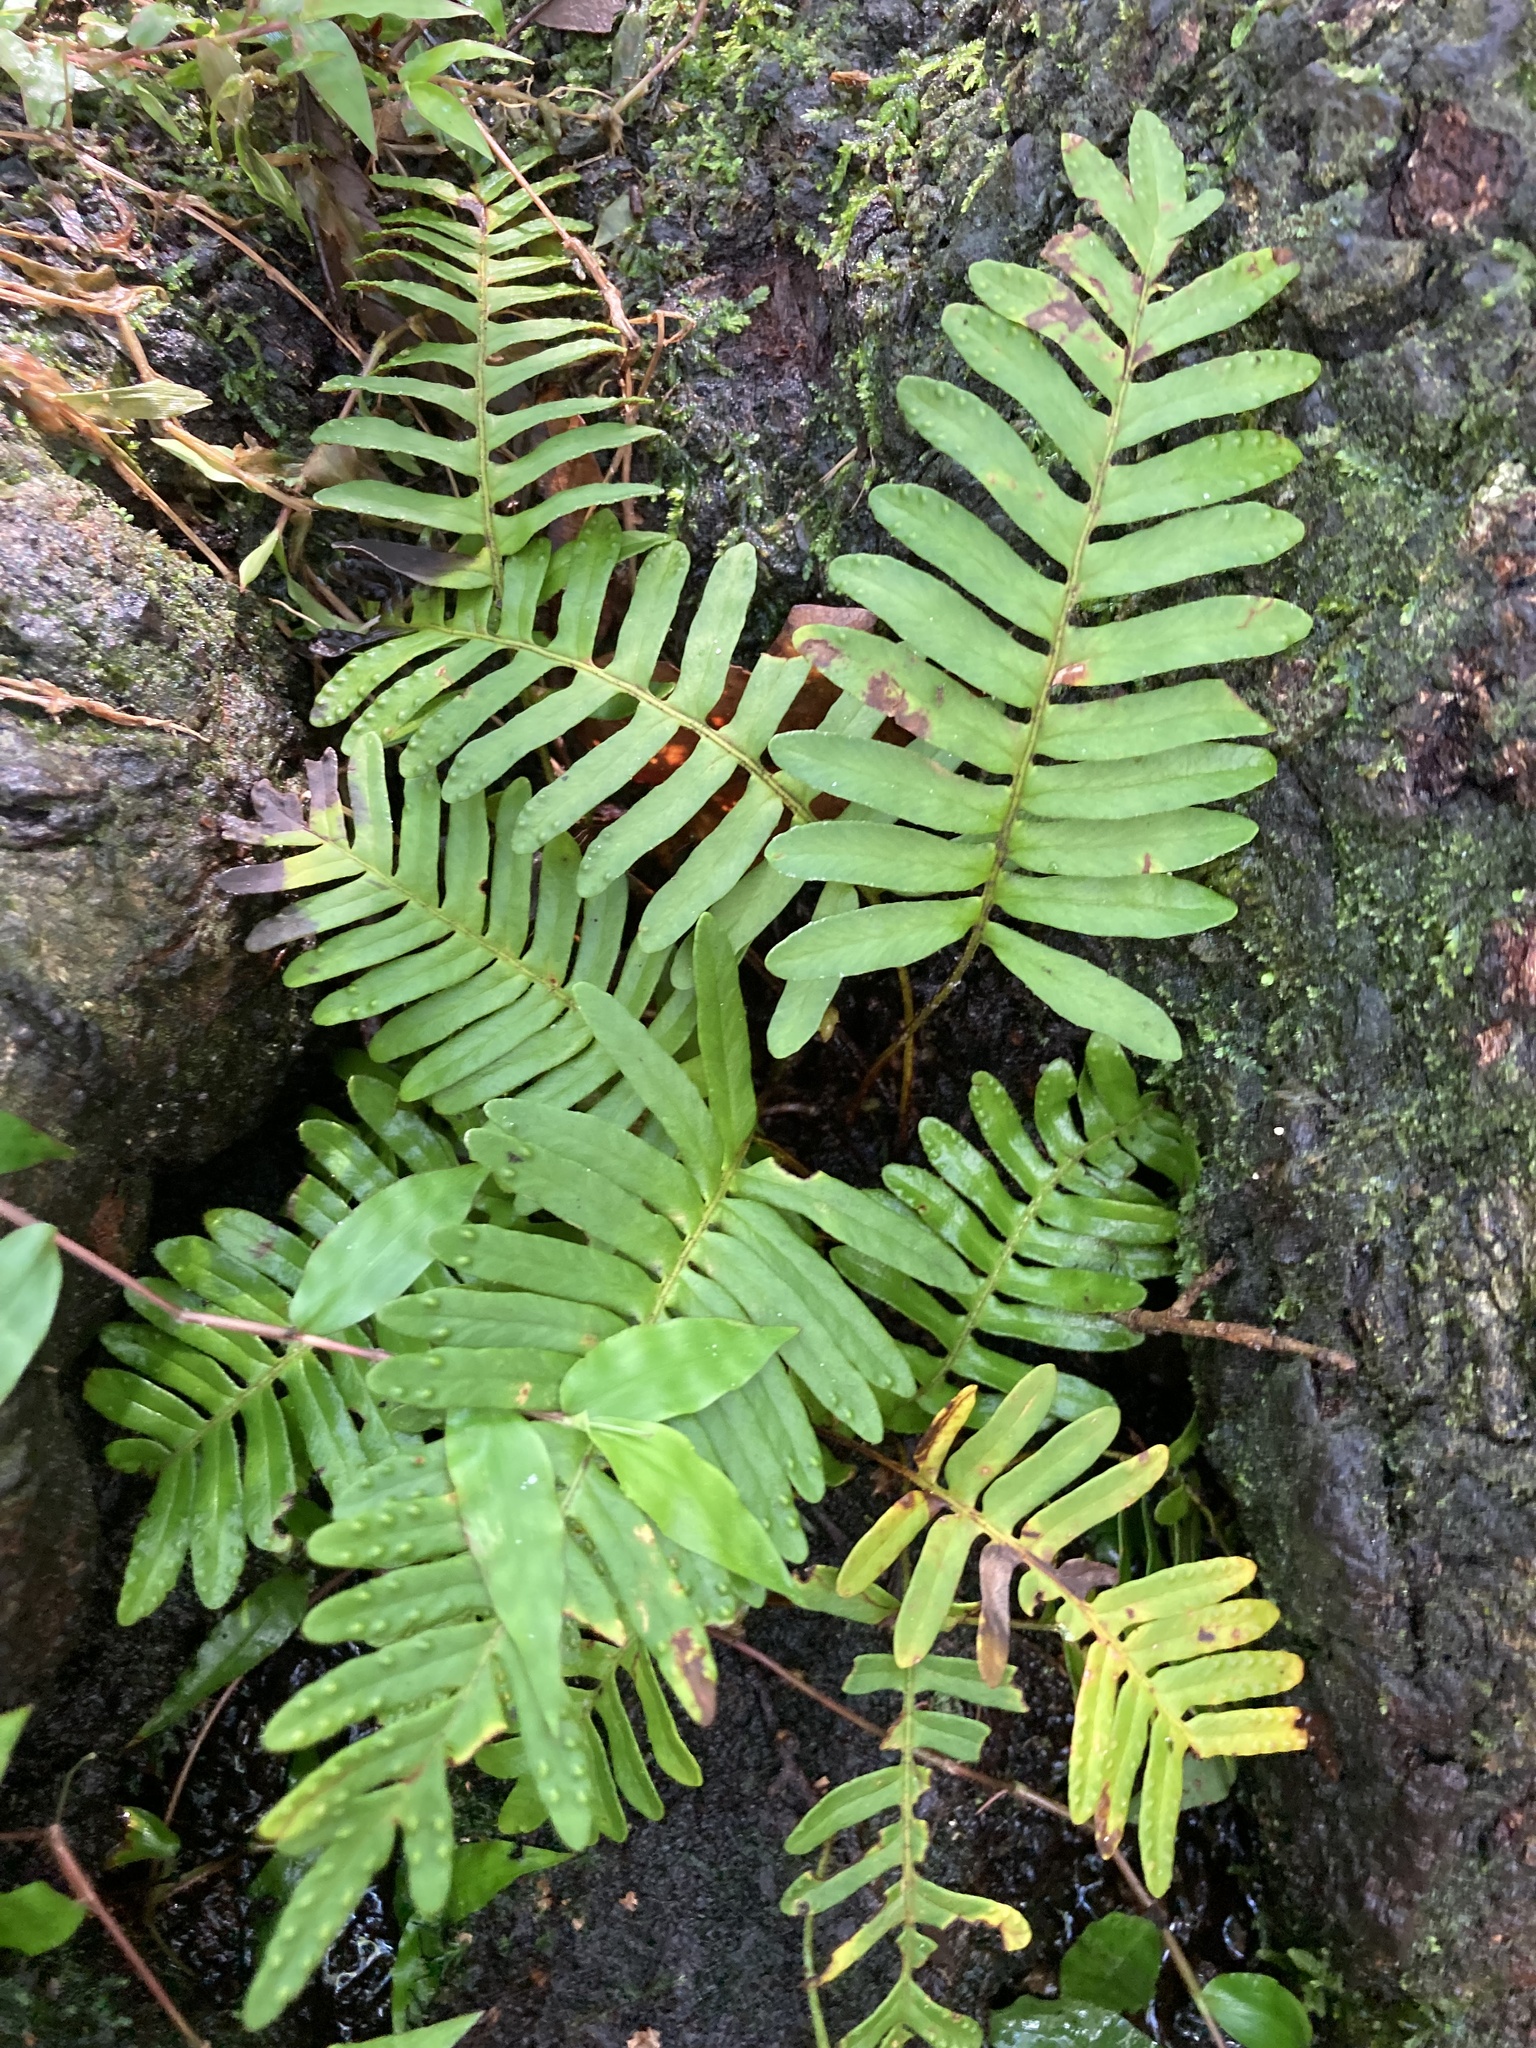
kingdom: Plantae
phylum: Tracheophyta
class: Polypodiopsida
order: Polypodiales
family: Polypodiaceae
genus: Pleopeltis
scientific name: Pleopeltis michauxiana
